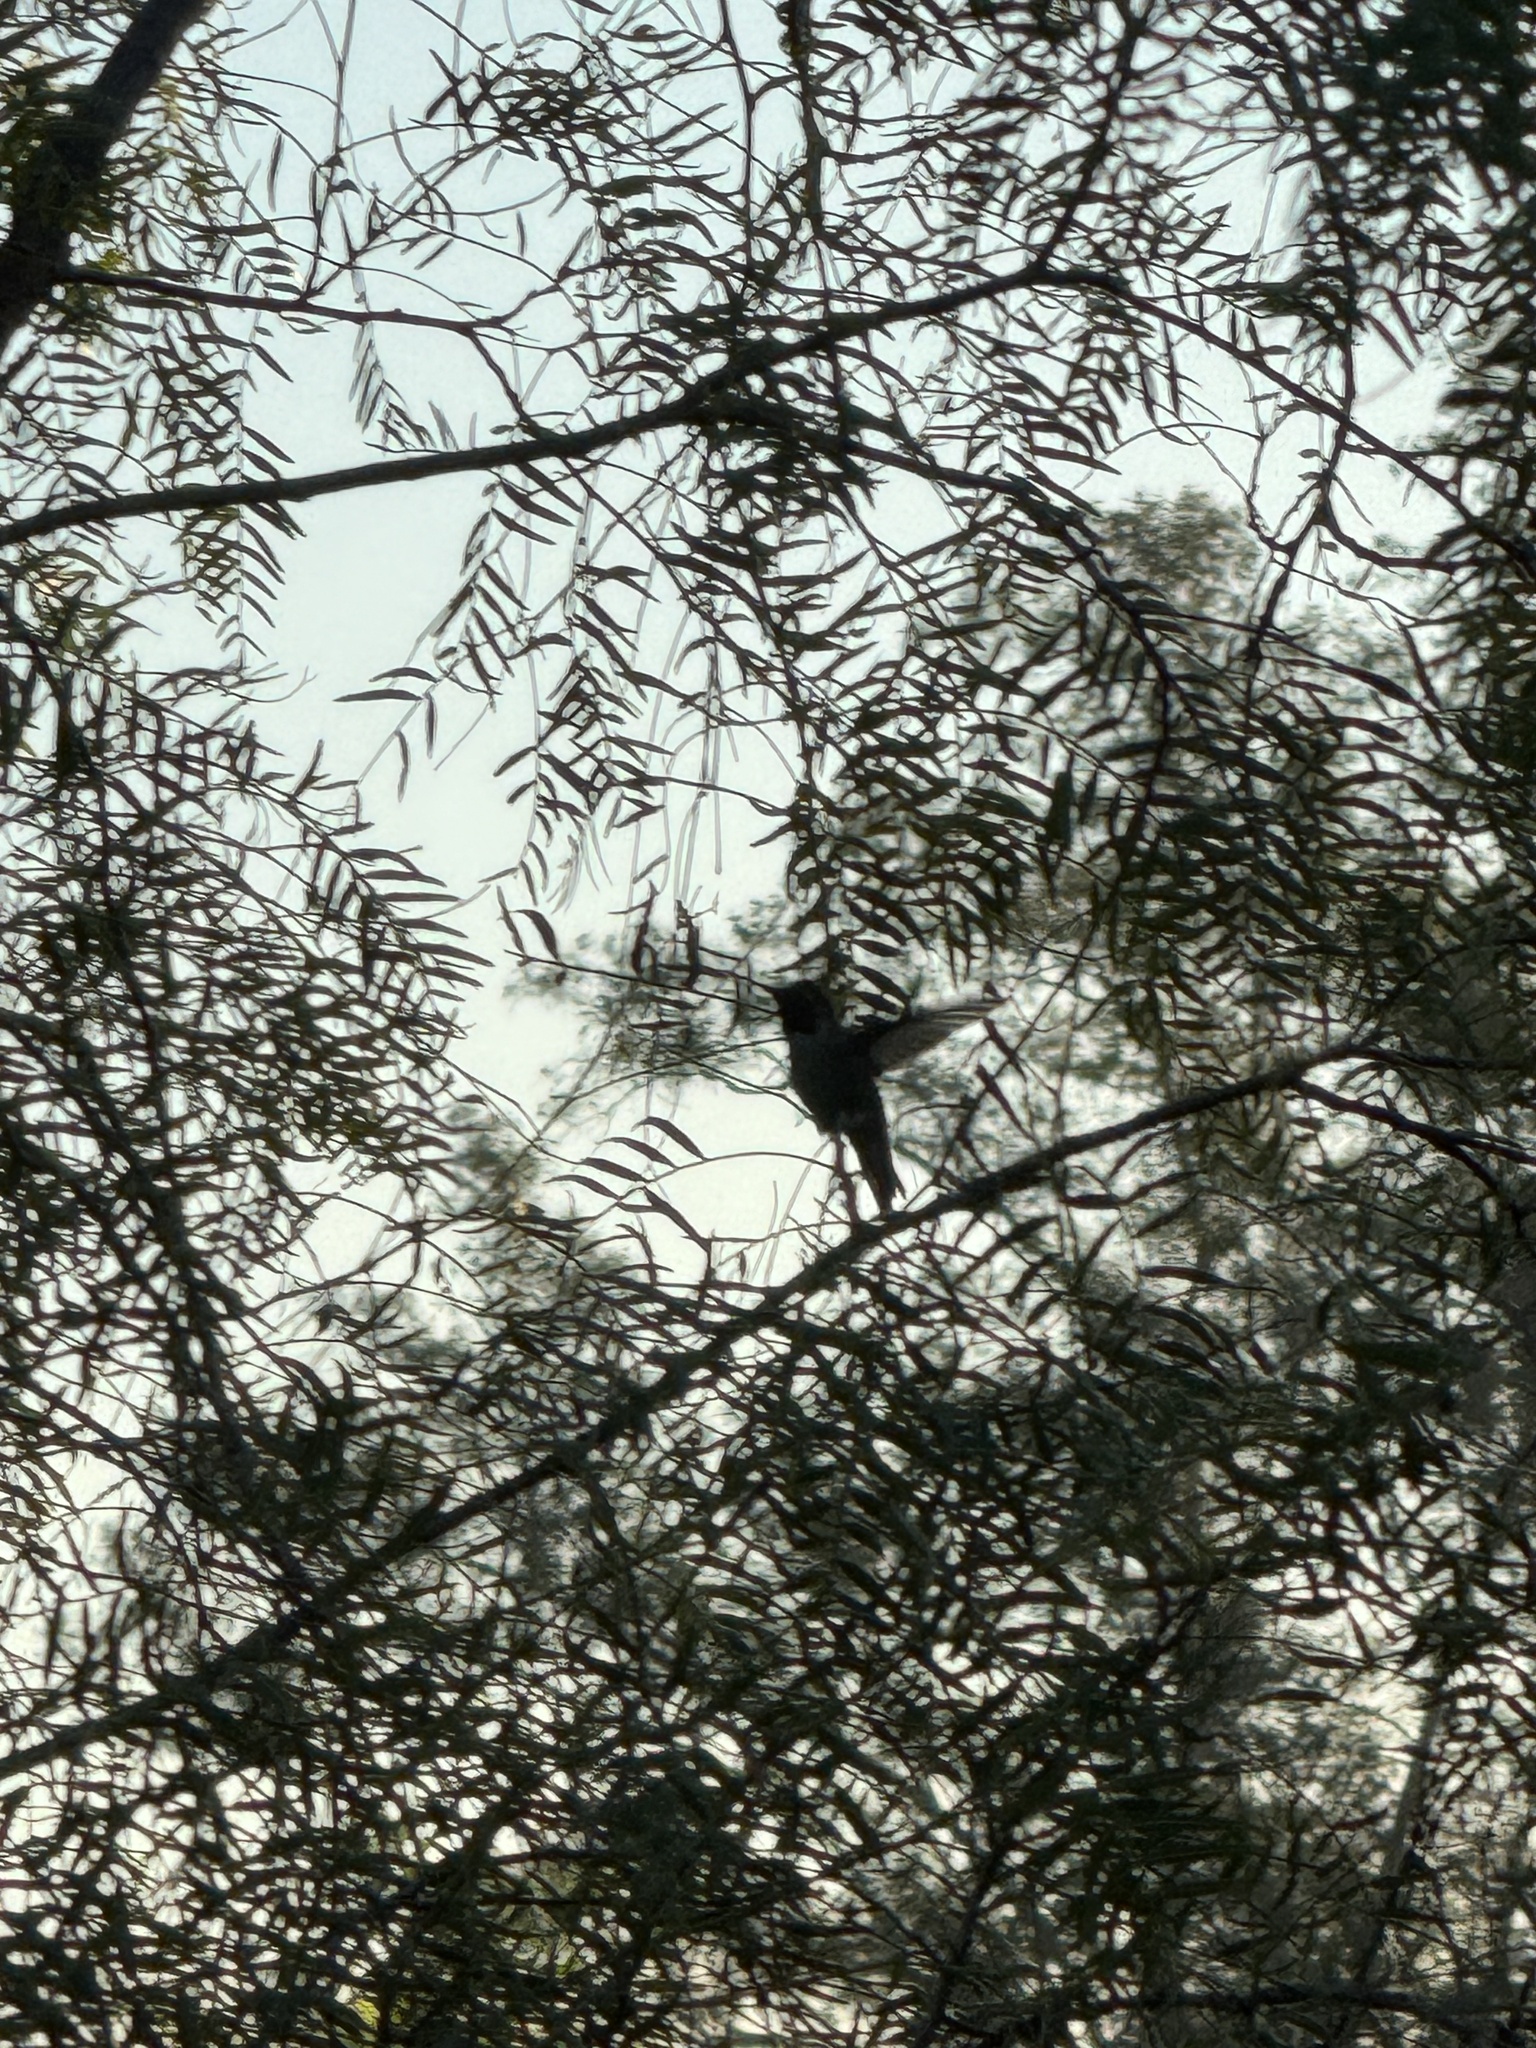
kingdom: Animalia
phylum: Chordata
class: Aves
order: Apodiformes
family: Trochilidae
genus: Calypte
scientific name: Calypte anna
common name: Anna's hummingbird
